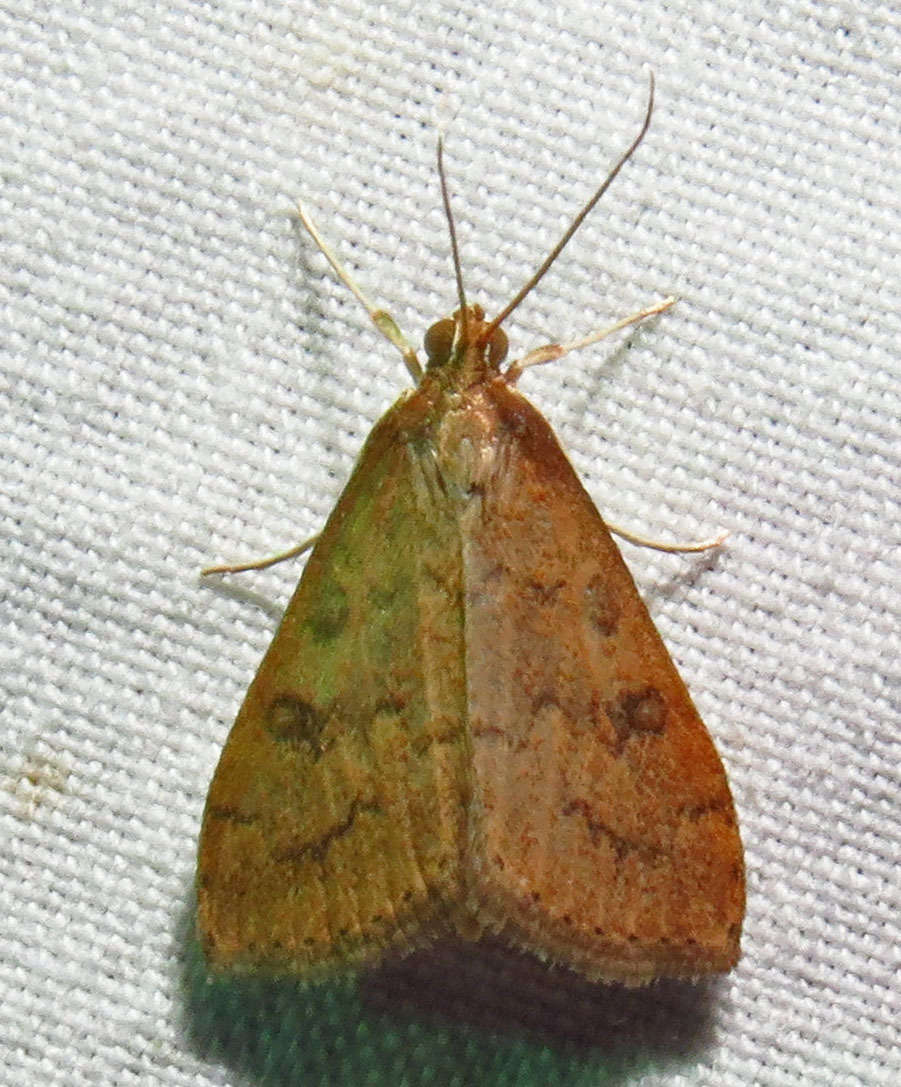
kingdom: Animalia
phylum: Arthropoda
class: Insecta
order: Lepidoptera
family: Crambidae
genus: Udea
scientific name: Udea rubigalis
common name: Celery leaftier moth
